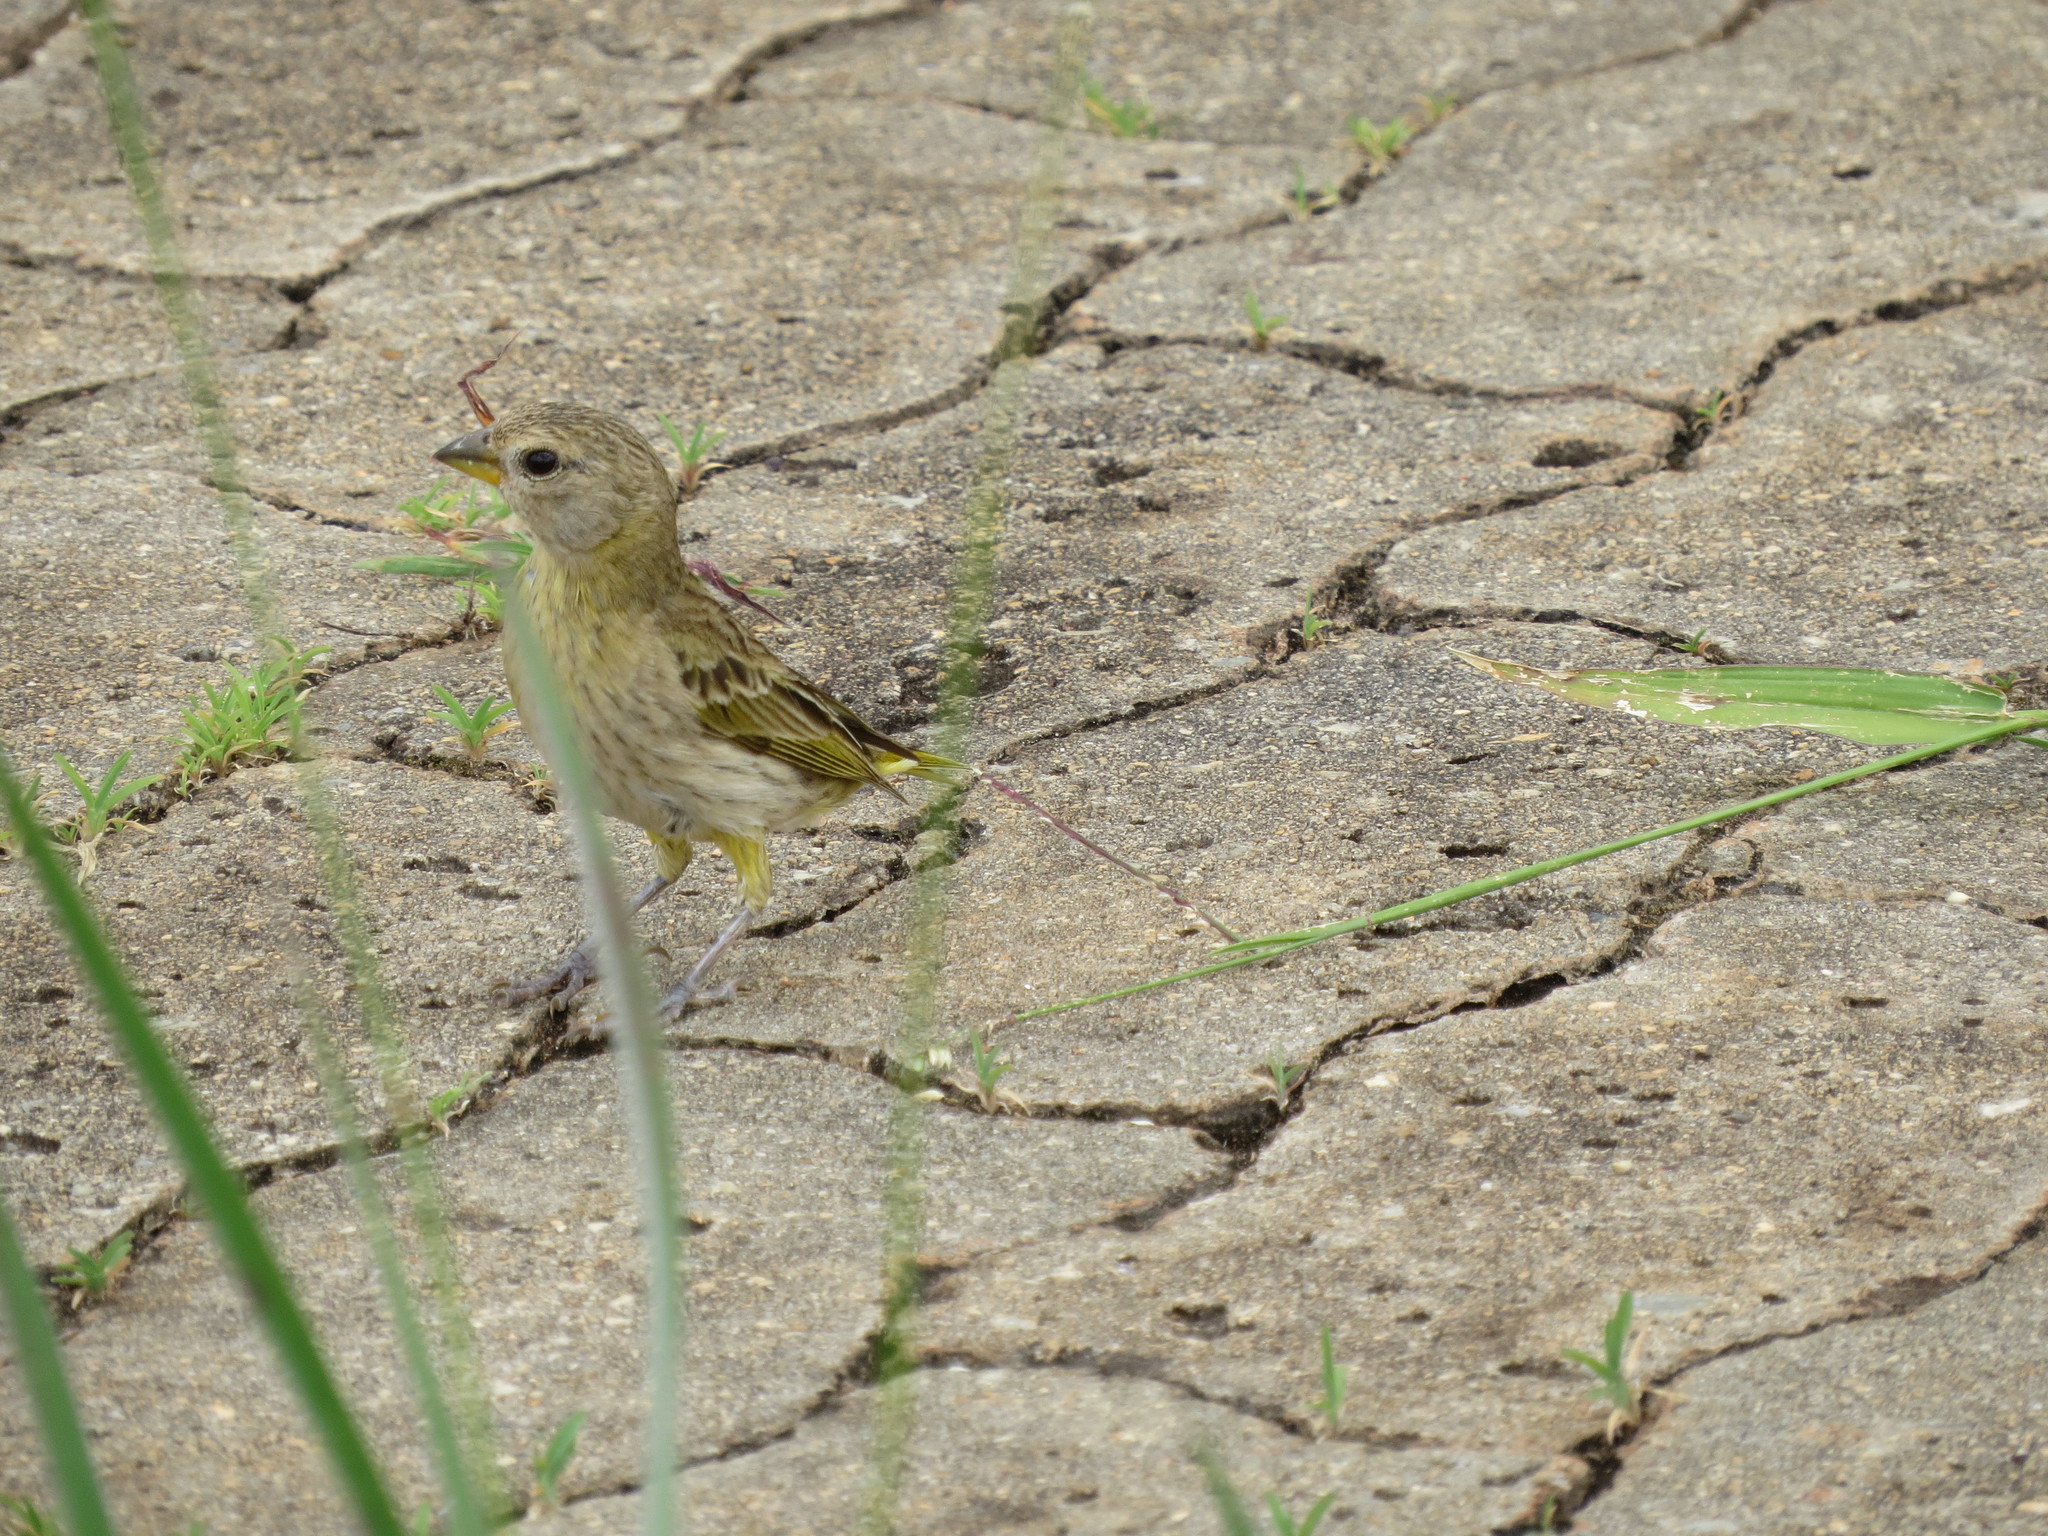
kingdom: Animalia
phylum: Chordata
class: Aves
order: Passeriformes
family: Thraupidae
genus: Sicalis
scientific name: Sicalis flaveola
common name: Saffron finch
